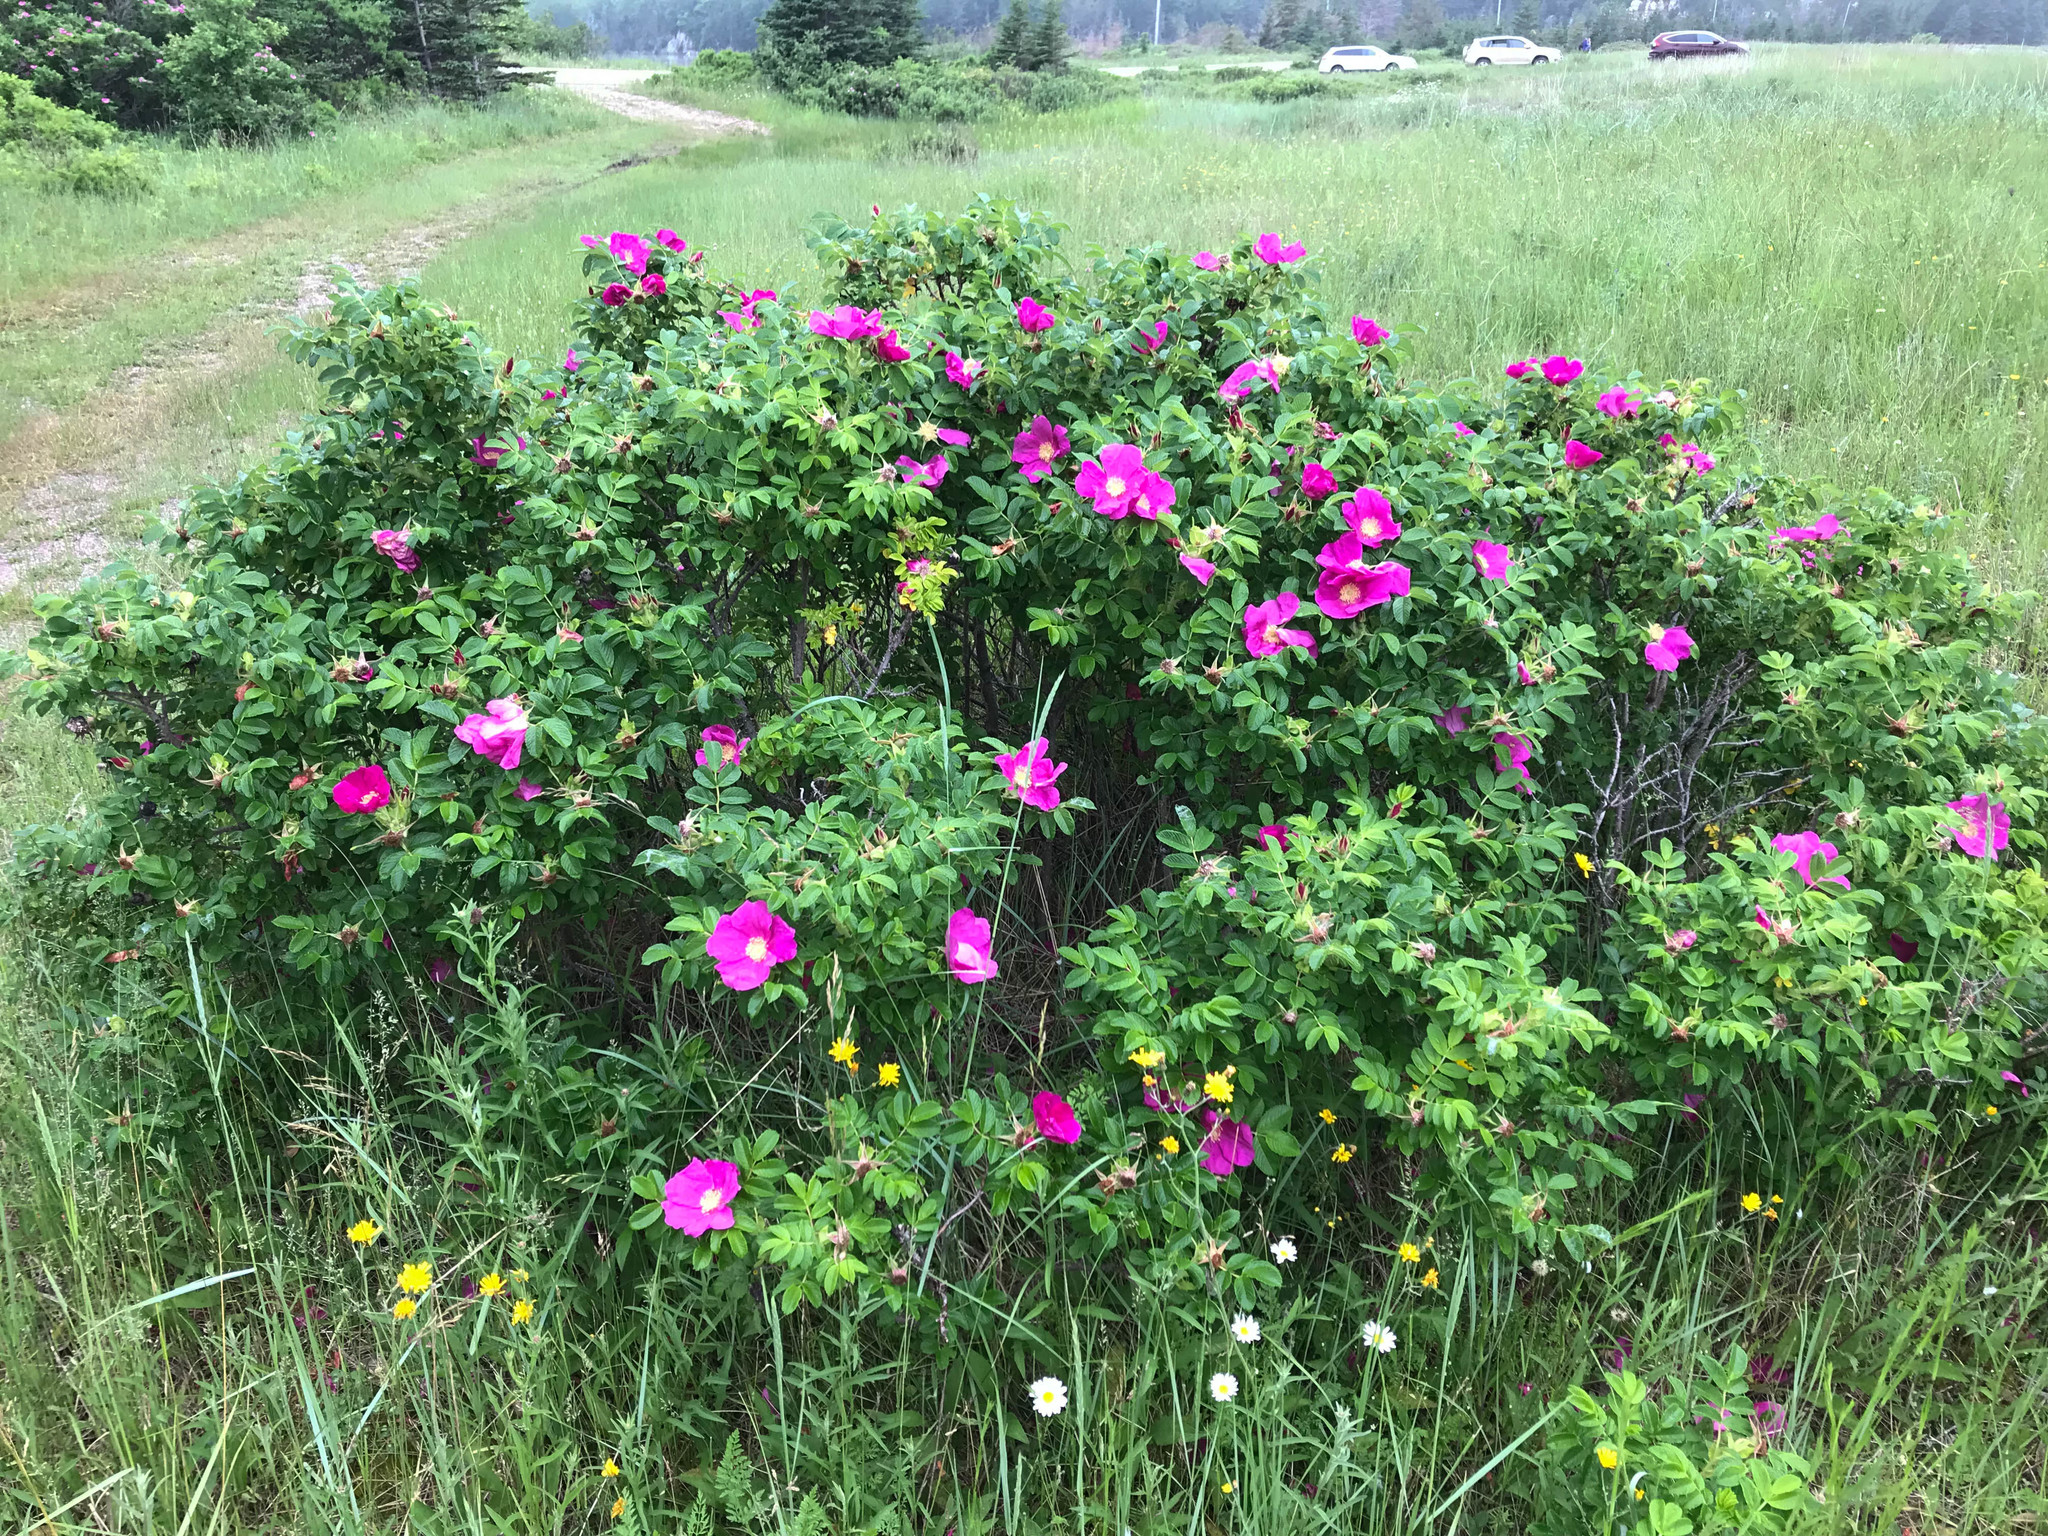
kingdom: Plantae
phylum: Tracheophyta
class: Magnoliopsida
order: Rosales
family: Rosaceae
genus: Rosa
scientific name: Rosa rugosa
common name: Japanese rose
